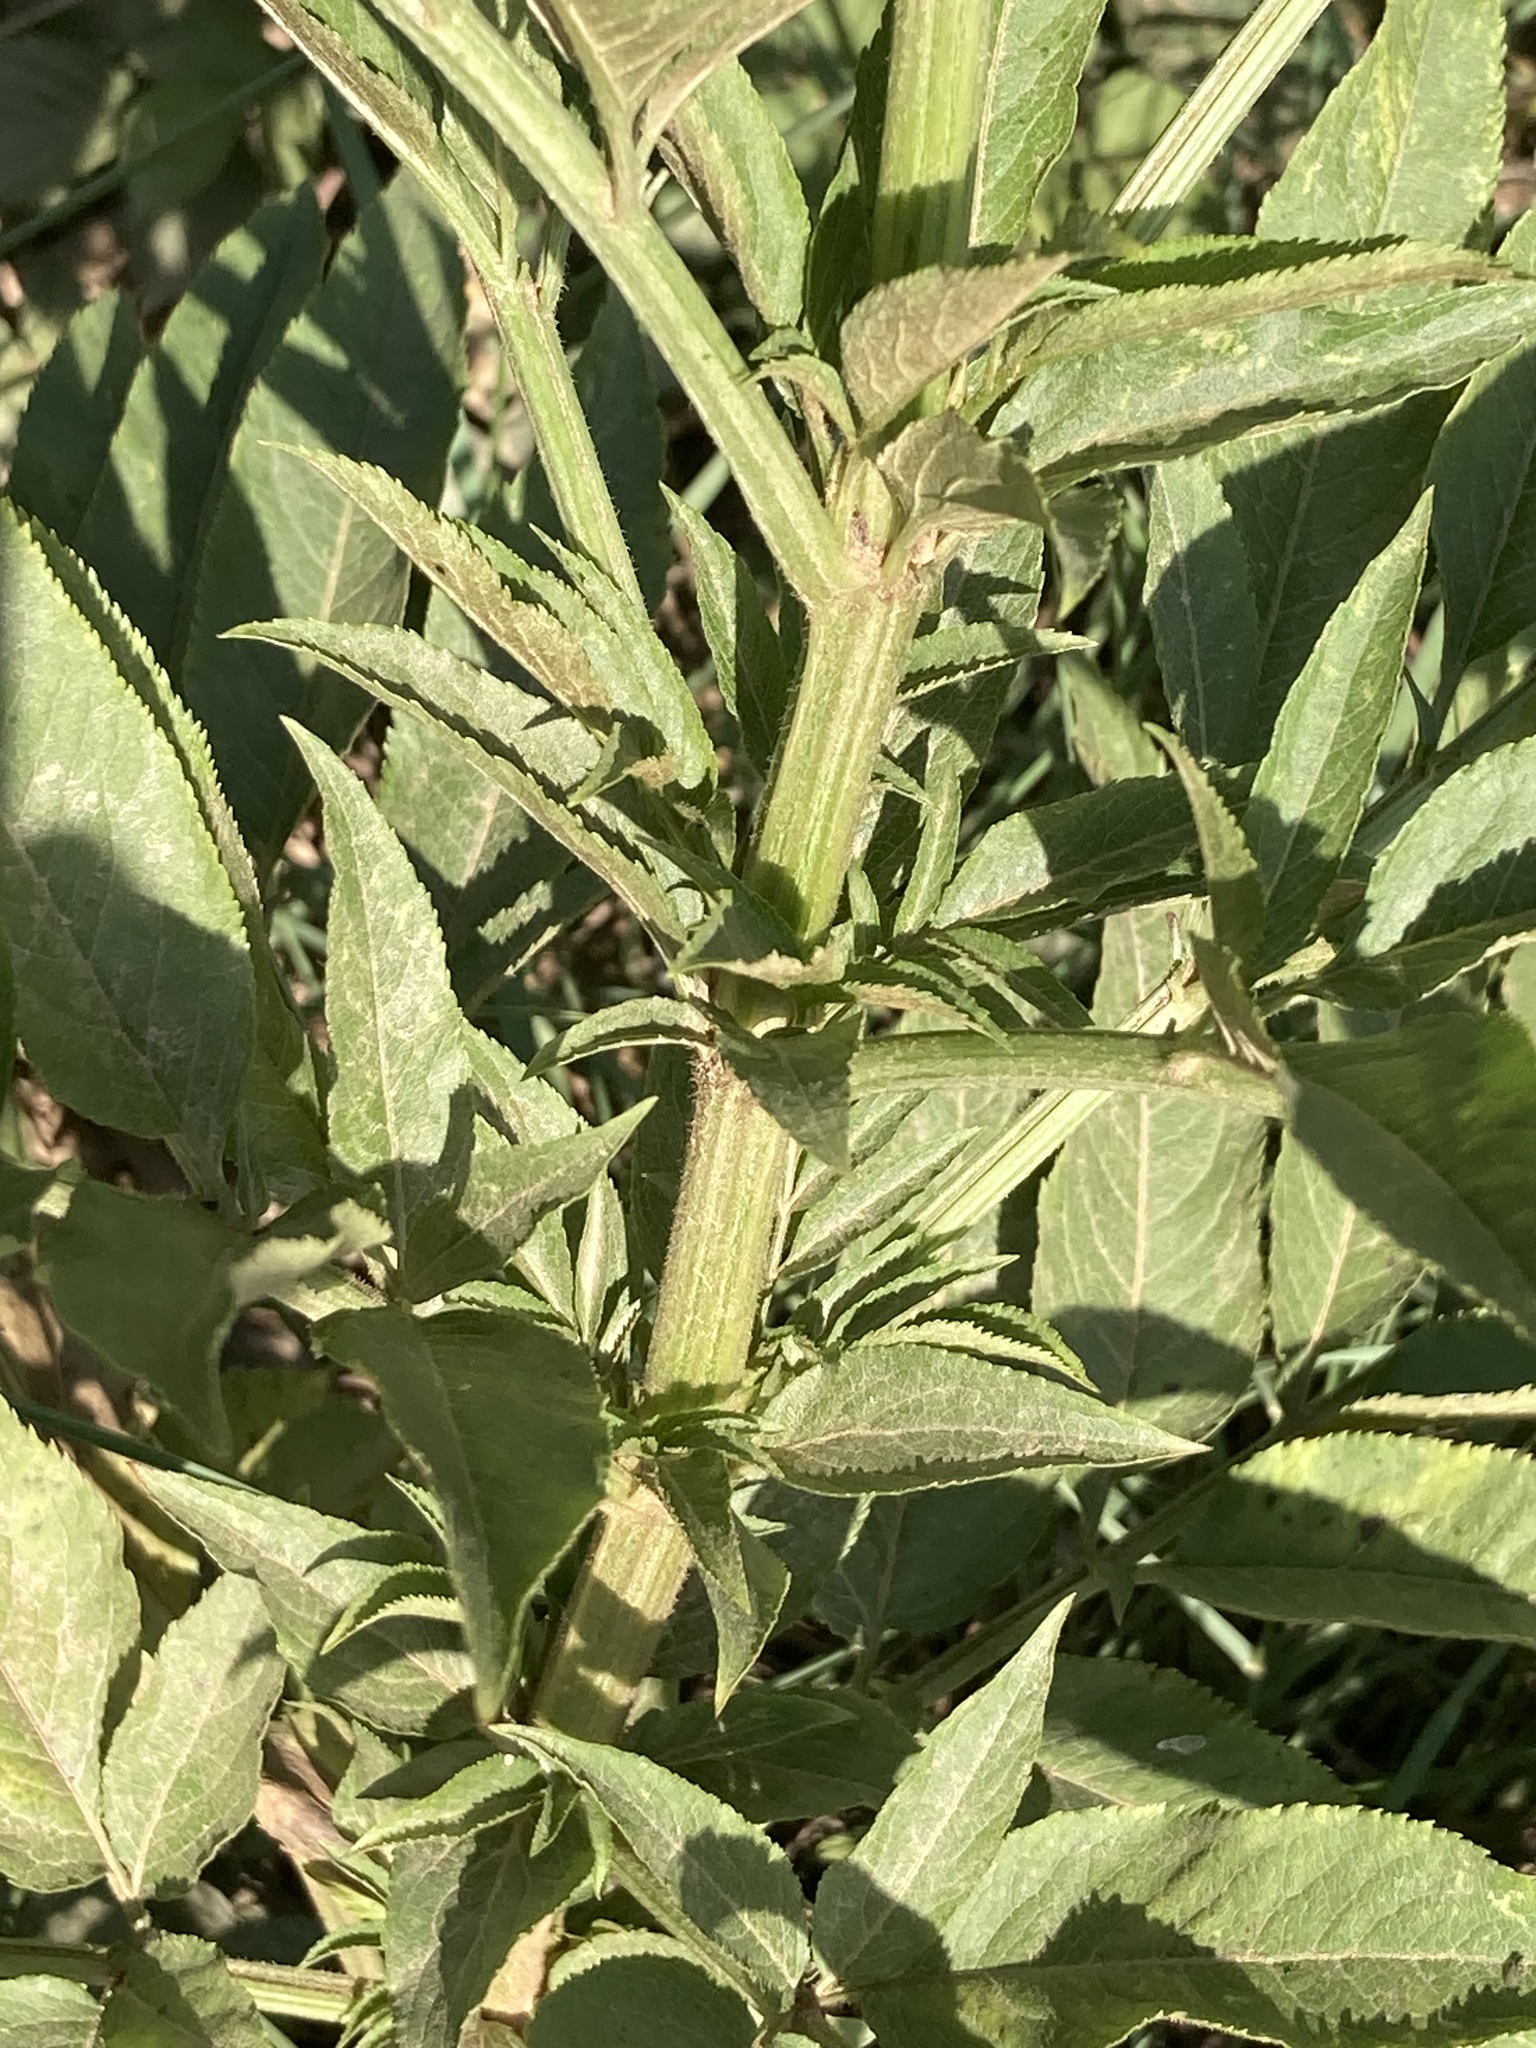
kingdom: Plantae
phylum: Tracheophyta
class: Magnoliopsida
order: Dipsacales
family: Viburnaceae
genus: Sambucus
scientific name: Sambucus ebulus
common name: Dwarf elder
